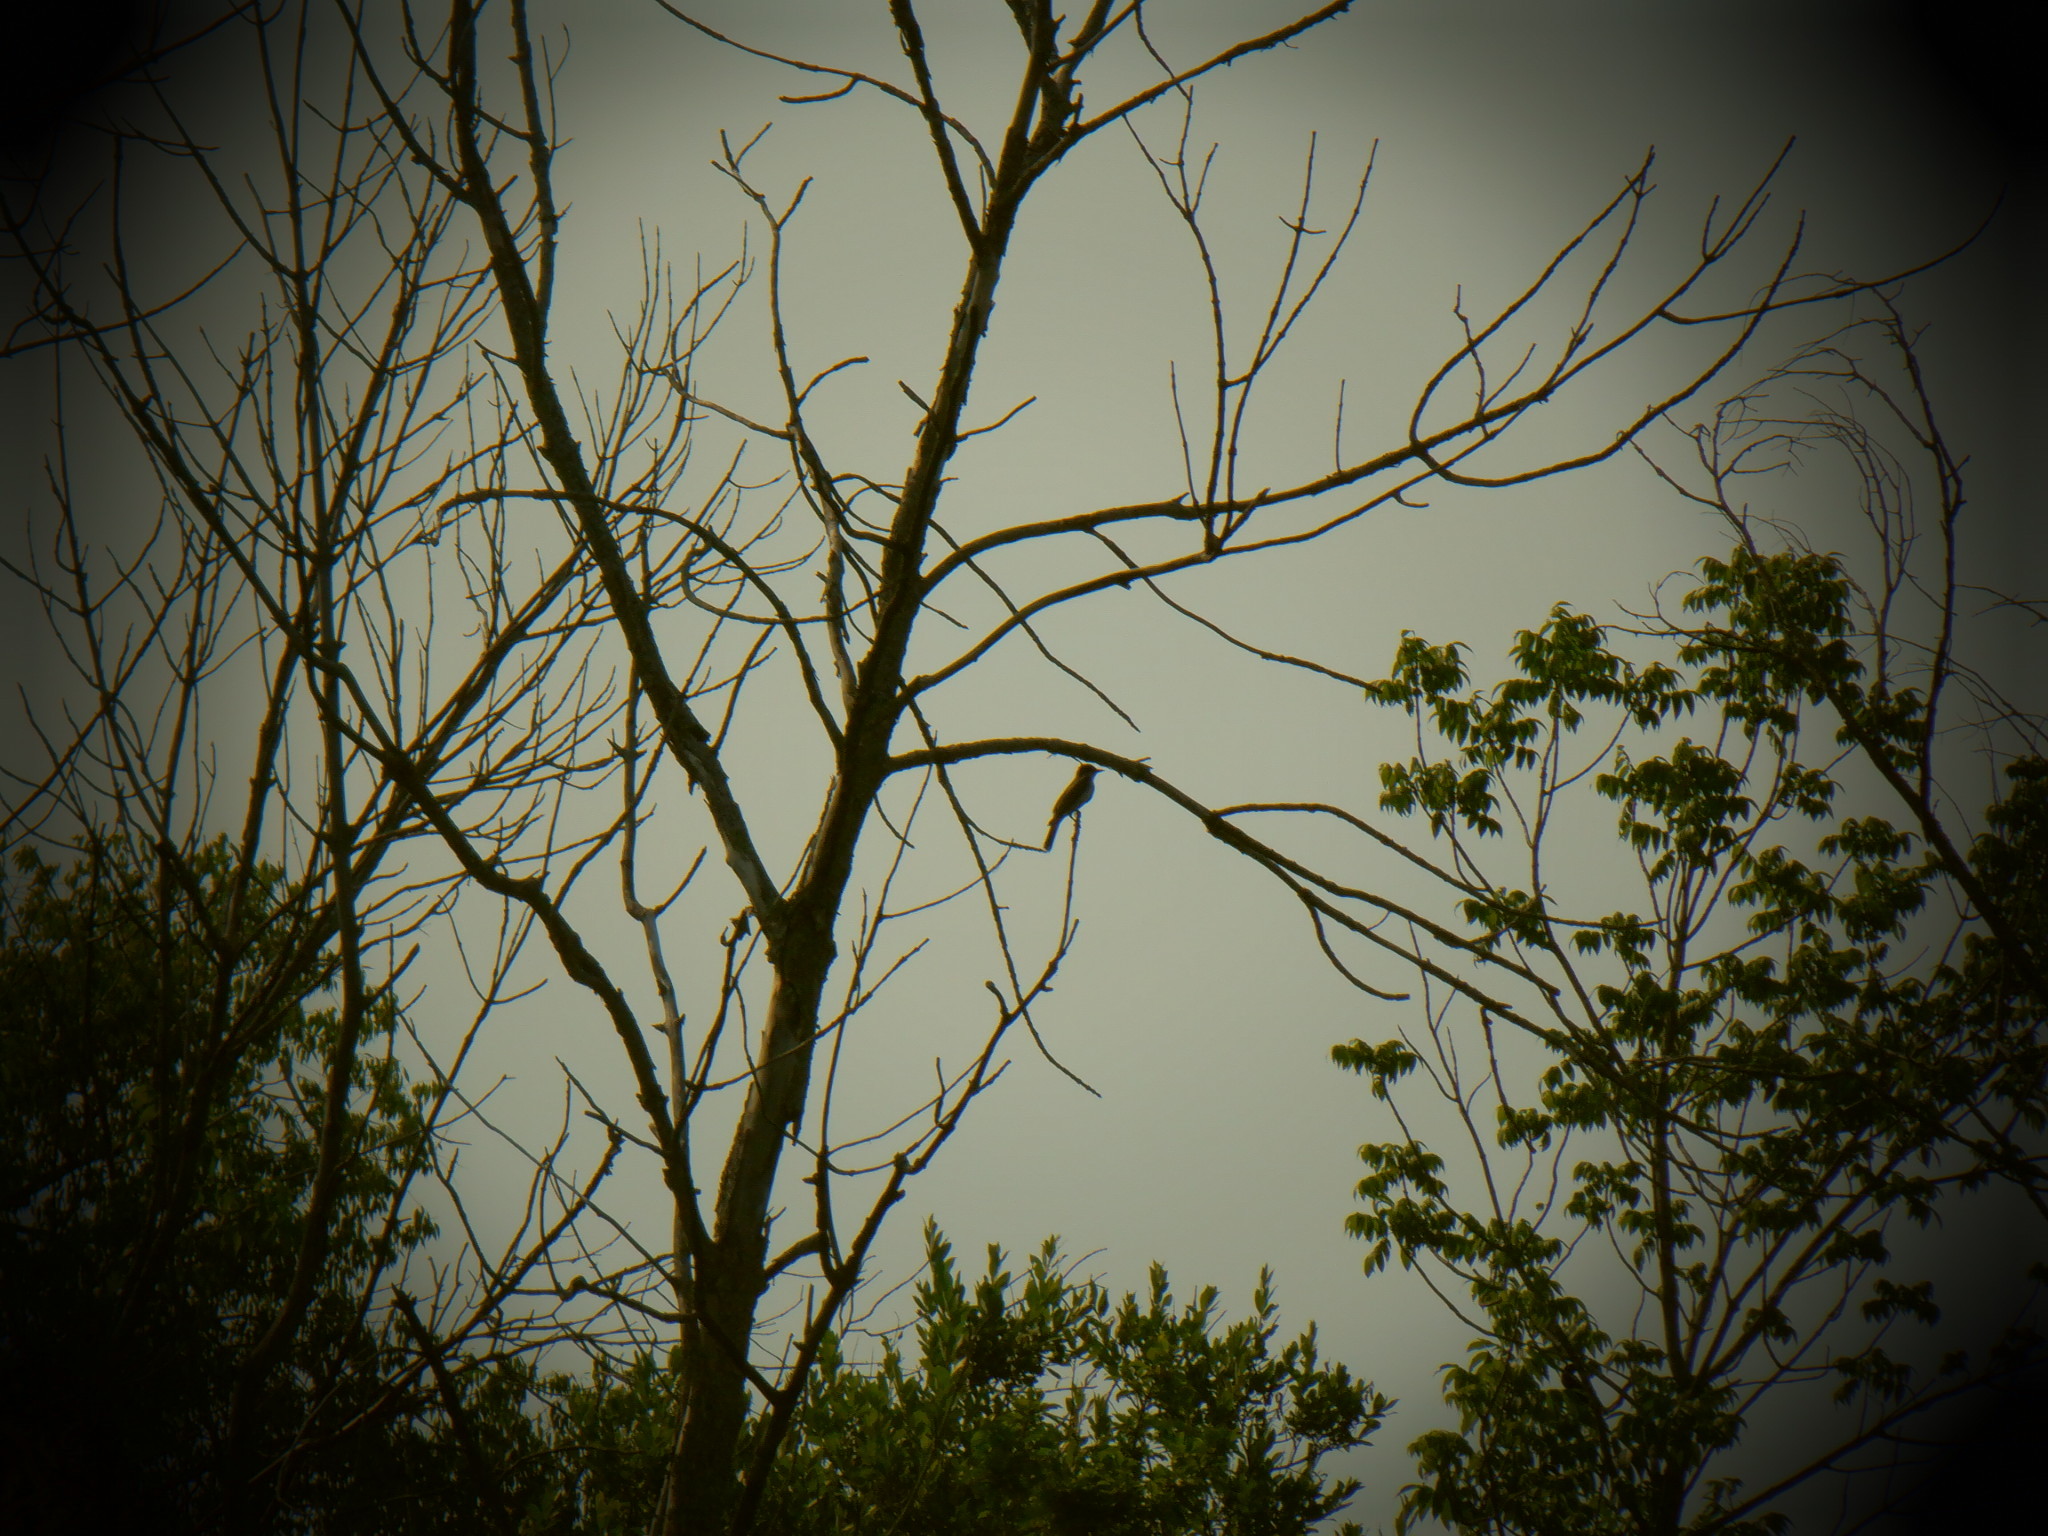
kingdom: Animalia
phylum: Chordata
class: Aves
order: Passeriformes
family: Tyrannidae
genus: Tyrannus
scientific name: Tyrannus tyrannus
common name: Eastern kingbird
